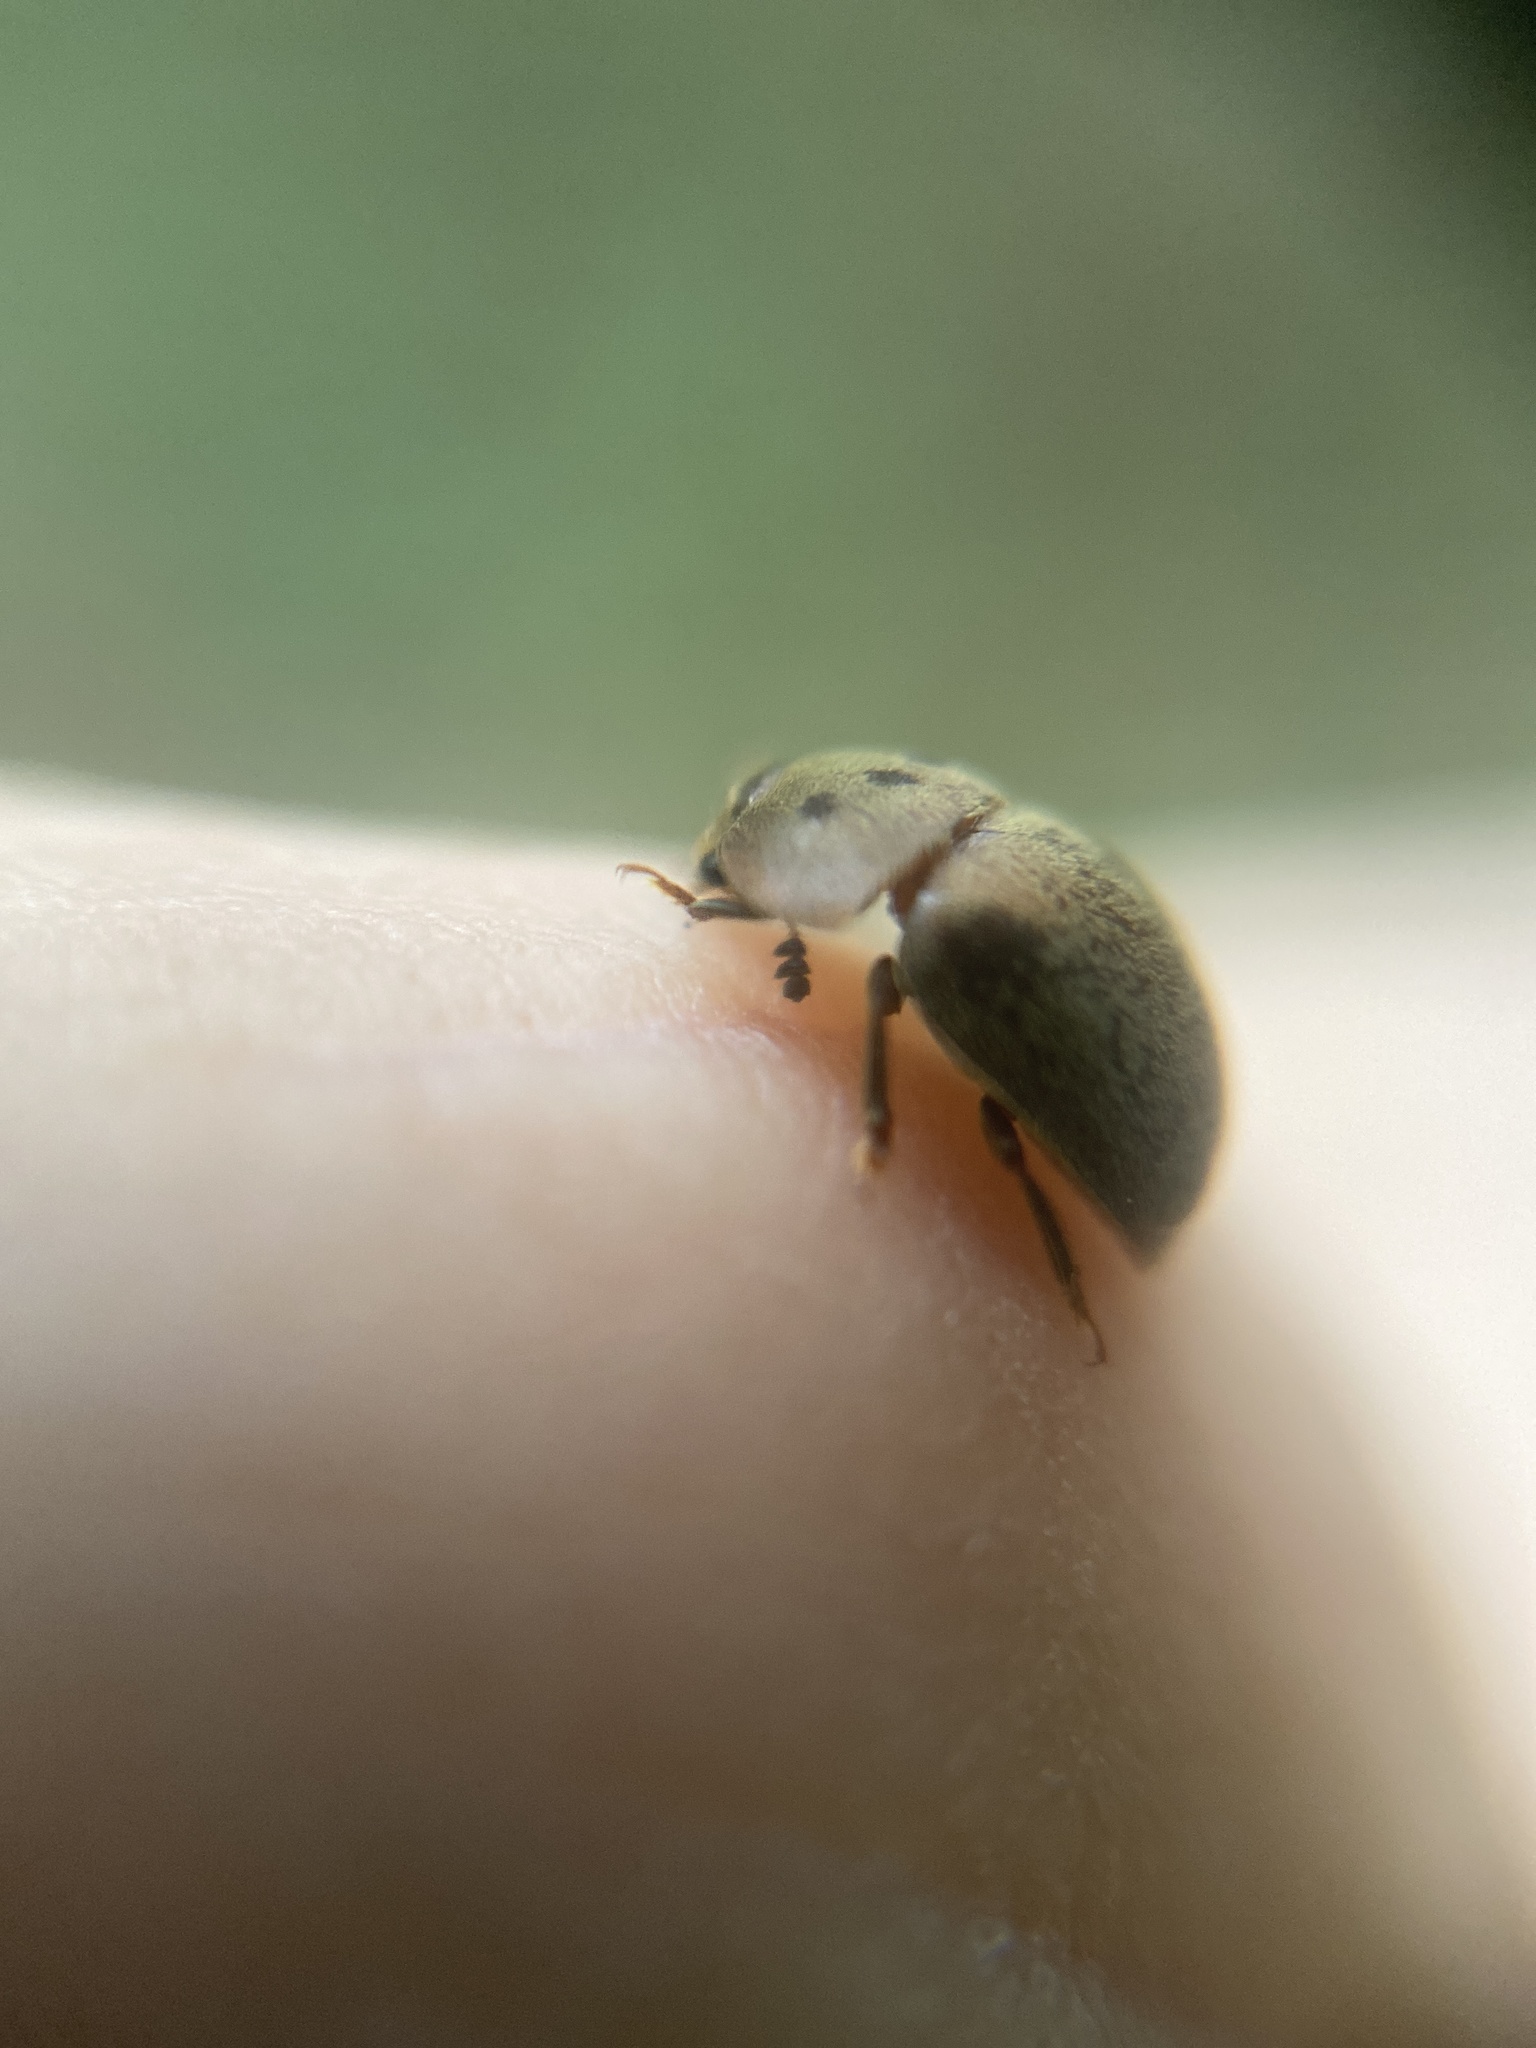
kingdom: Animalia
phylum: Arthropoda
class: Insecta
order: Coleoptera
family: Nitidulidae
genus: Cychramus
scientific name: Cychramus variegatus
